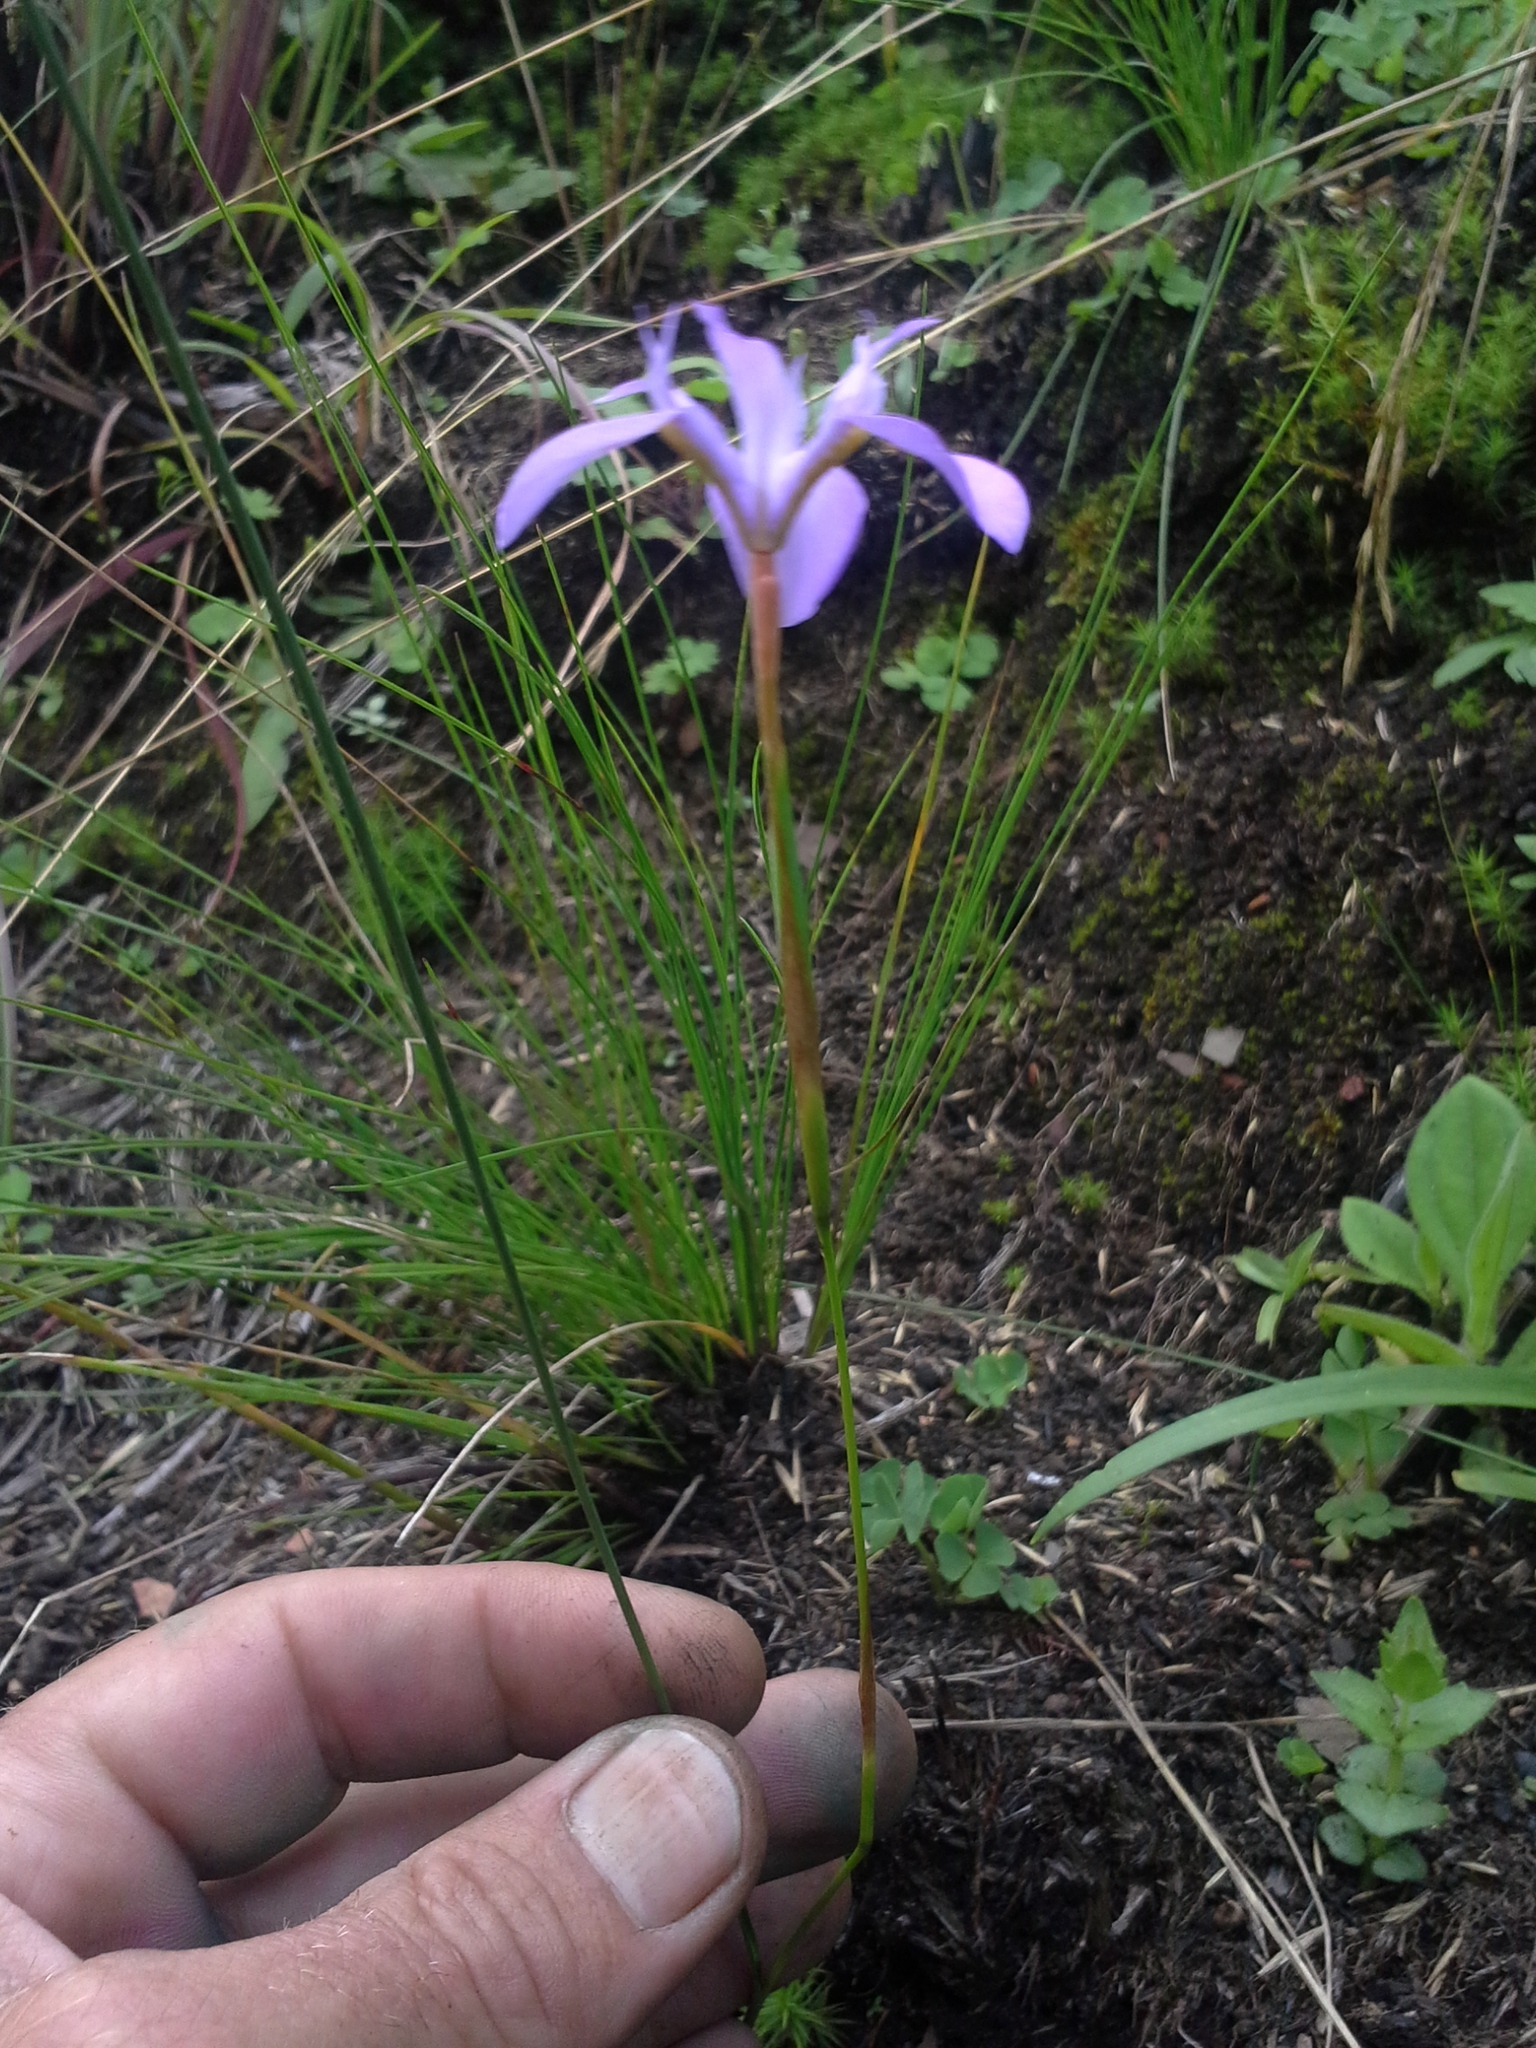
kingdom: Plantae
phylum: Tracheophyta
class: Liliopsida
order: Asparagales
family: Iridaceae
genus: Moraea
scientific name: Moraea elliotii
